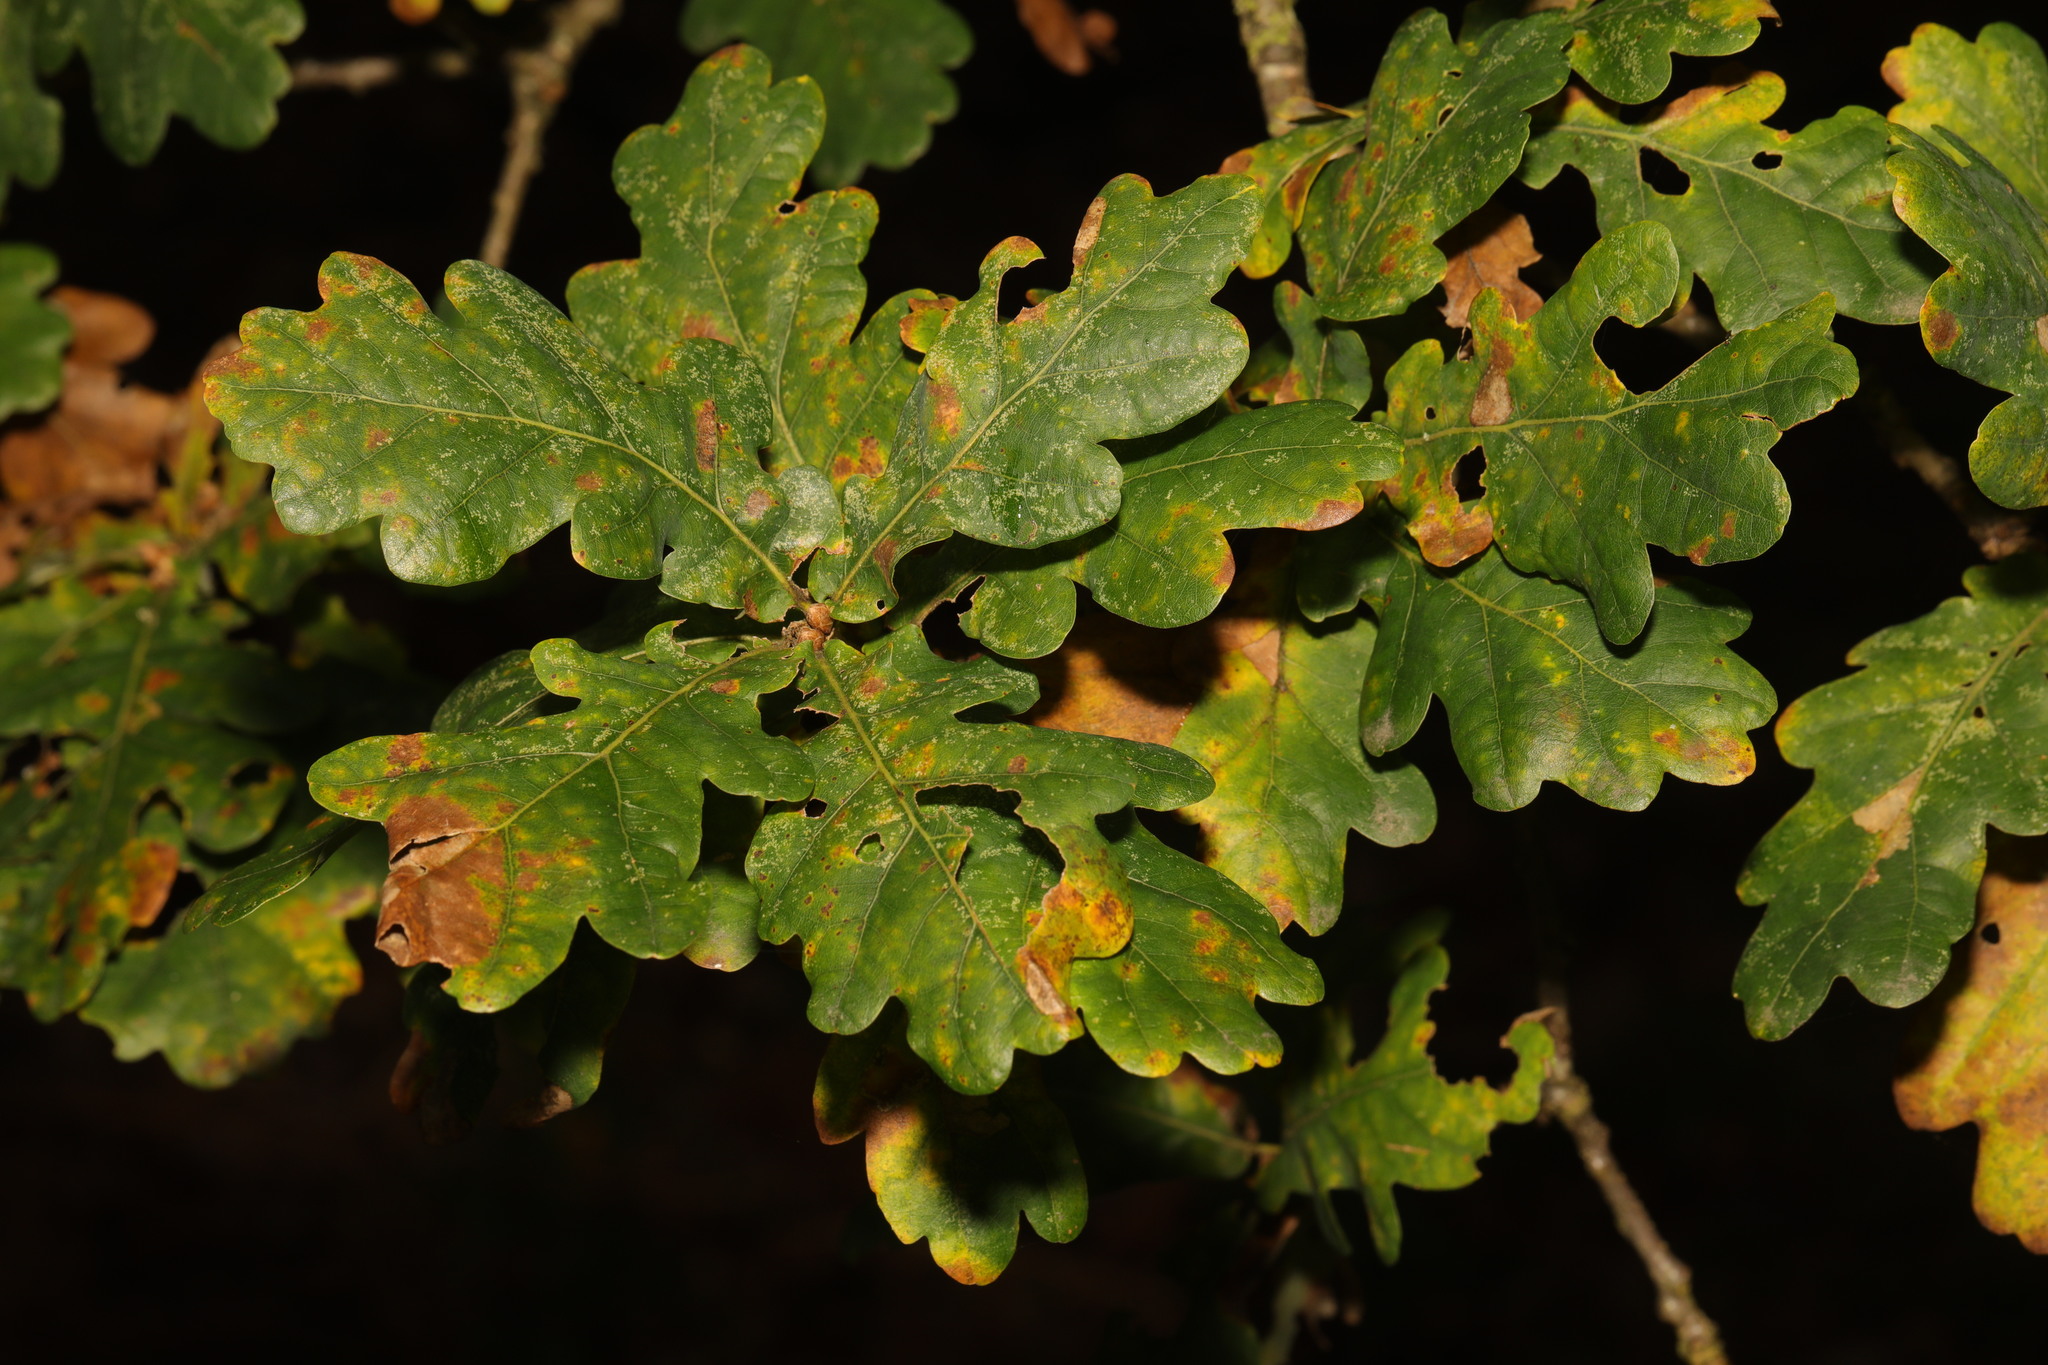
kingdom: Plantae
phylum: Tracheophyta
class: Magnoliopsida
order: Fagales
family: Fagaceae
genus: Quercus
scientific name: Quercus robur
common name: Pedunculate oak
